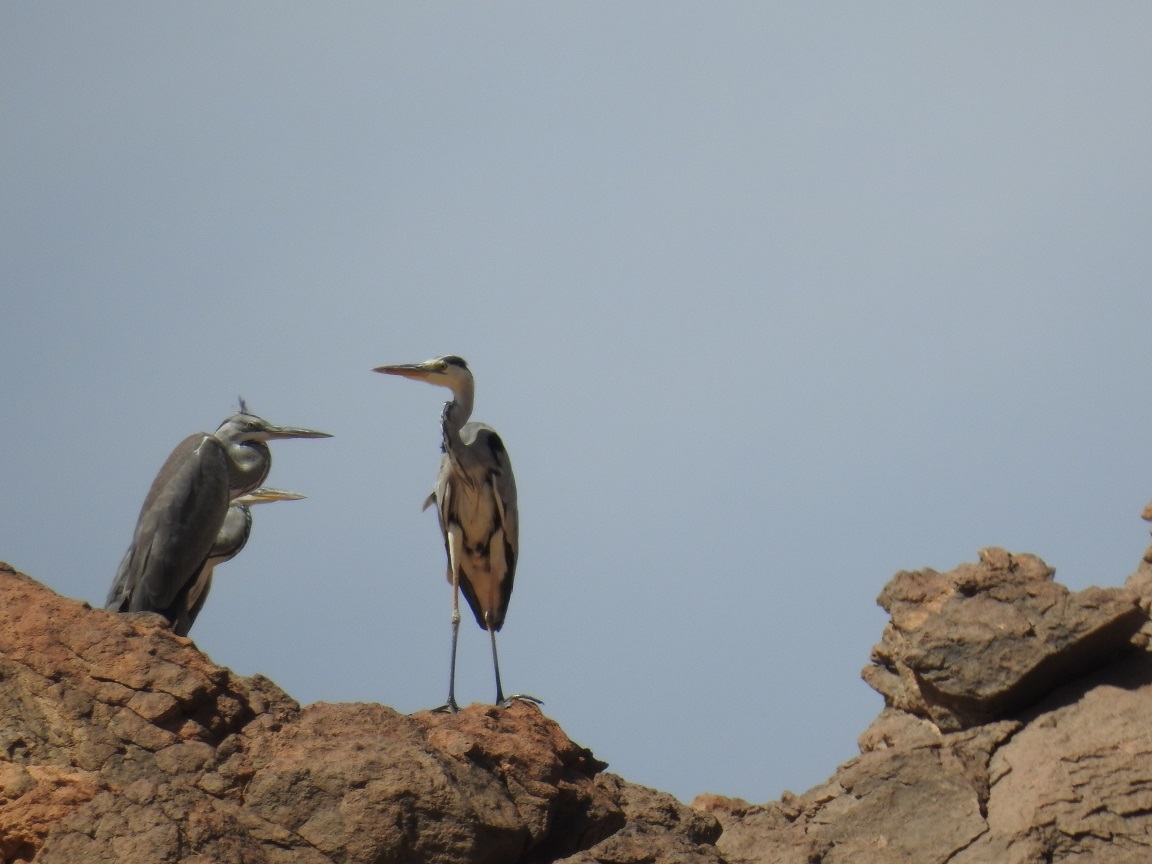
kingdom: Animalia
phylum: Chordata
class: Aves
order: Pelecaniformes
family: Ardeidae
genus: Ardea
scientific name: Ardea cinerea
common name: Grey heron
